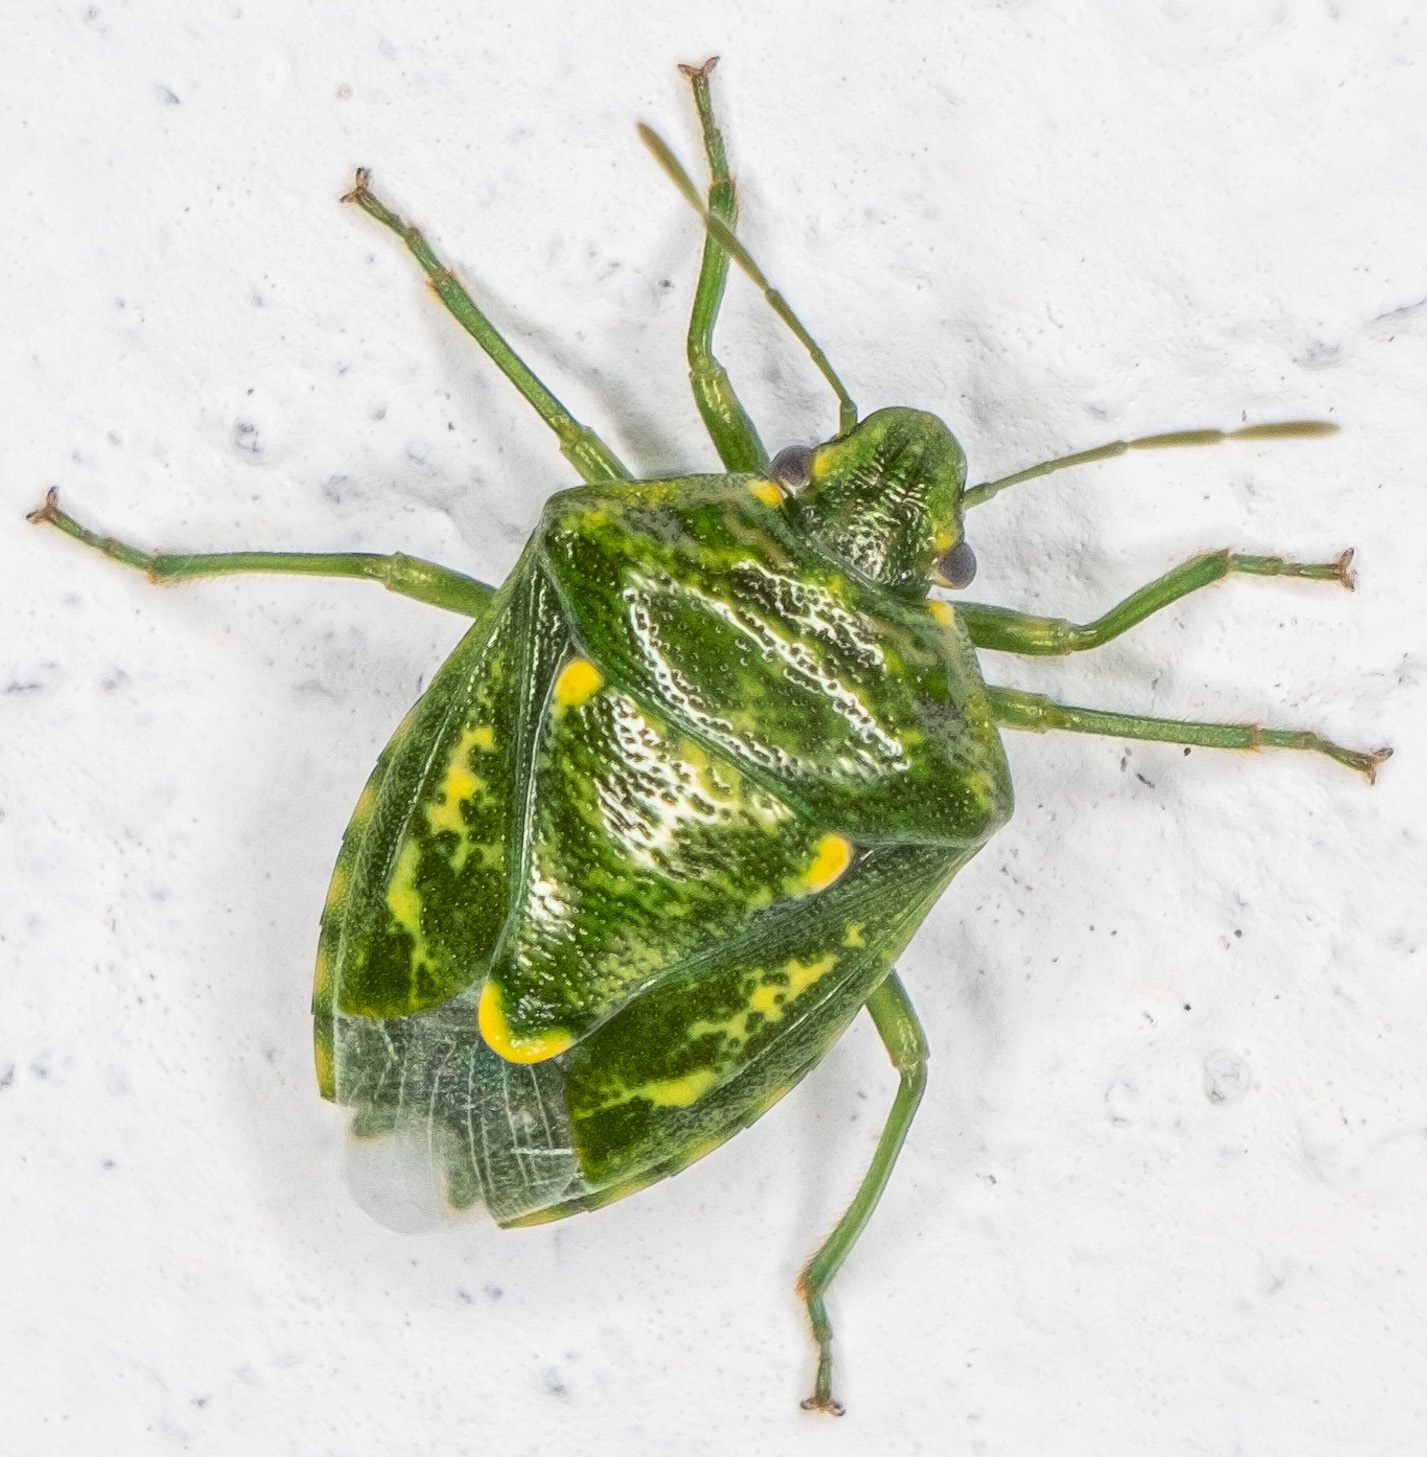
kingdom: Animalia
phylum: Arthropoda
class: Insecta
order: Hemiptera
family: Pentatomidae
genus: Banasa
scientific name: Banasa euchlora
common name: Cedar berry bug
